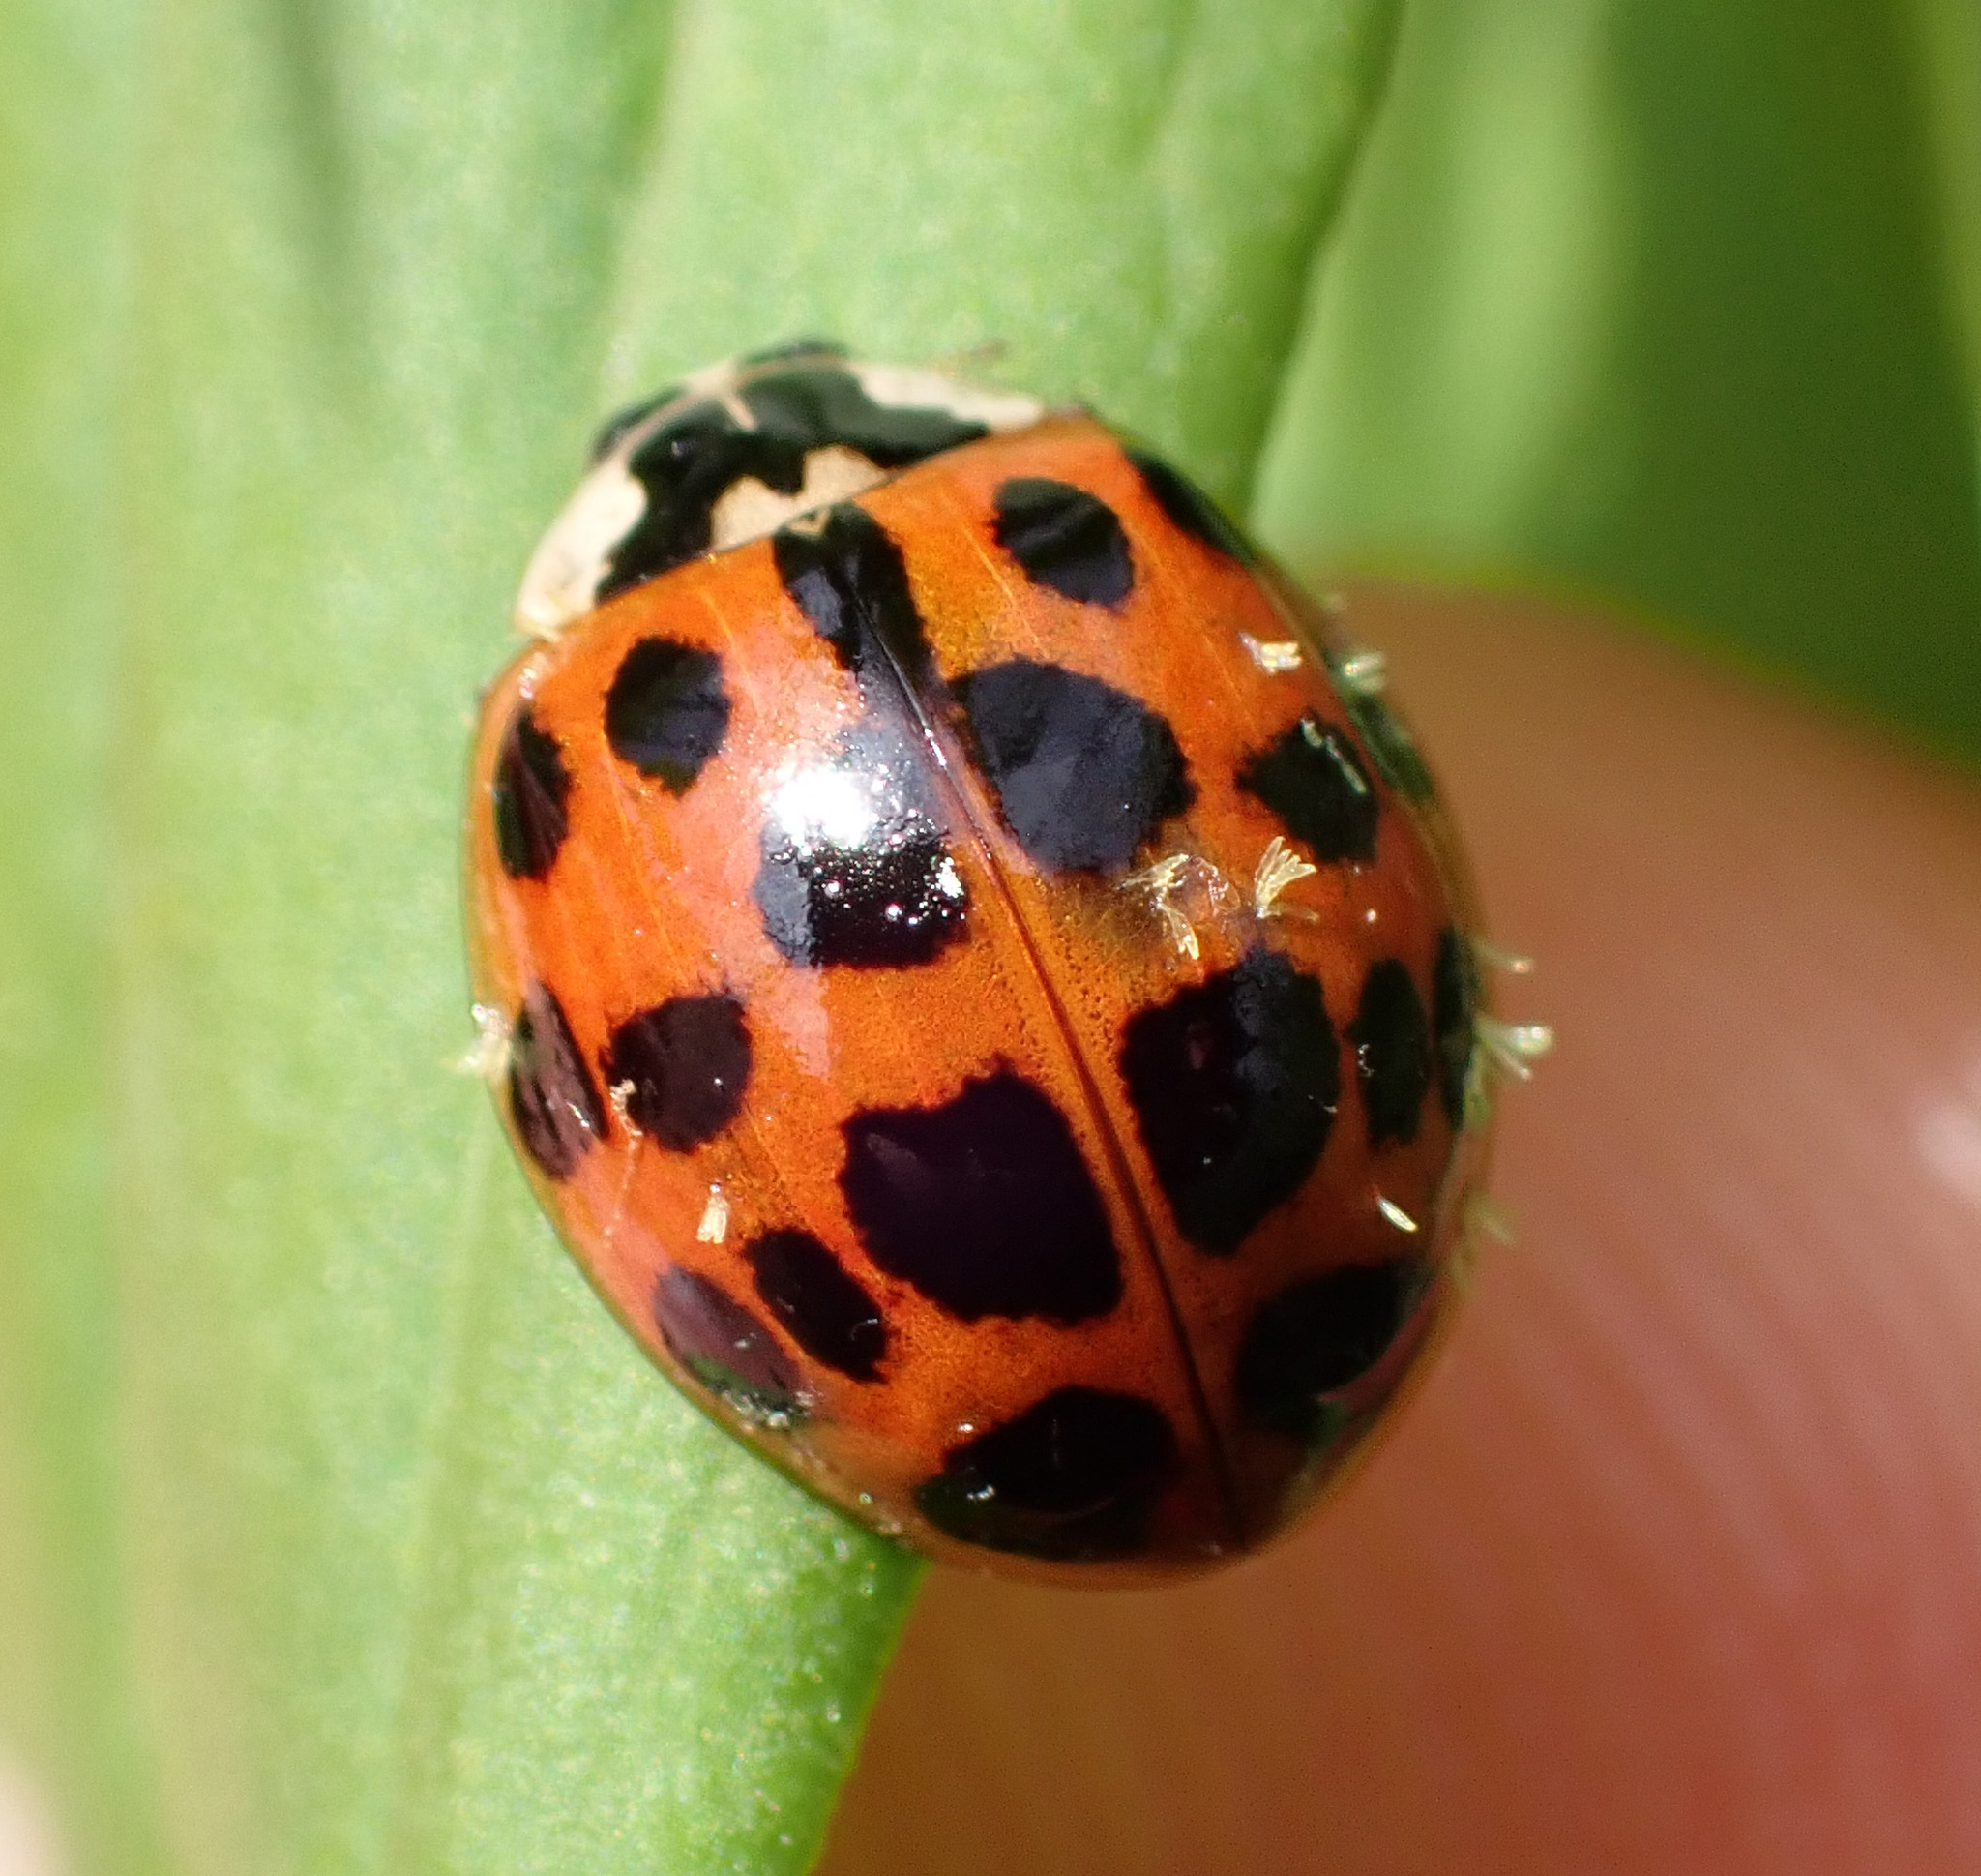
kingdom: Animalia
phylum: Arthropoda
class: Insecta
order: Coleoptera
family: Coccinellidae
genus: Harmonia
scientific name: Harmonia axyridis
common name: Harlequin ladybird
